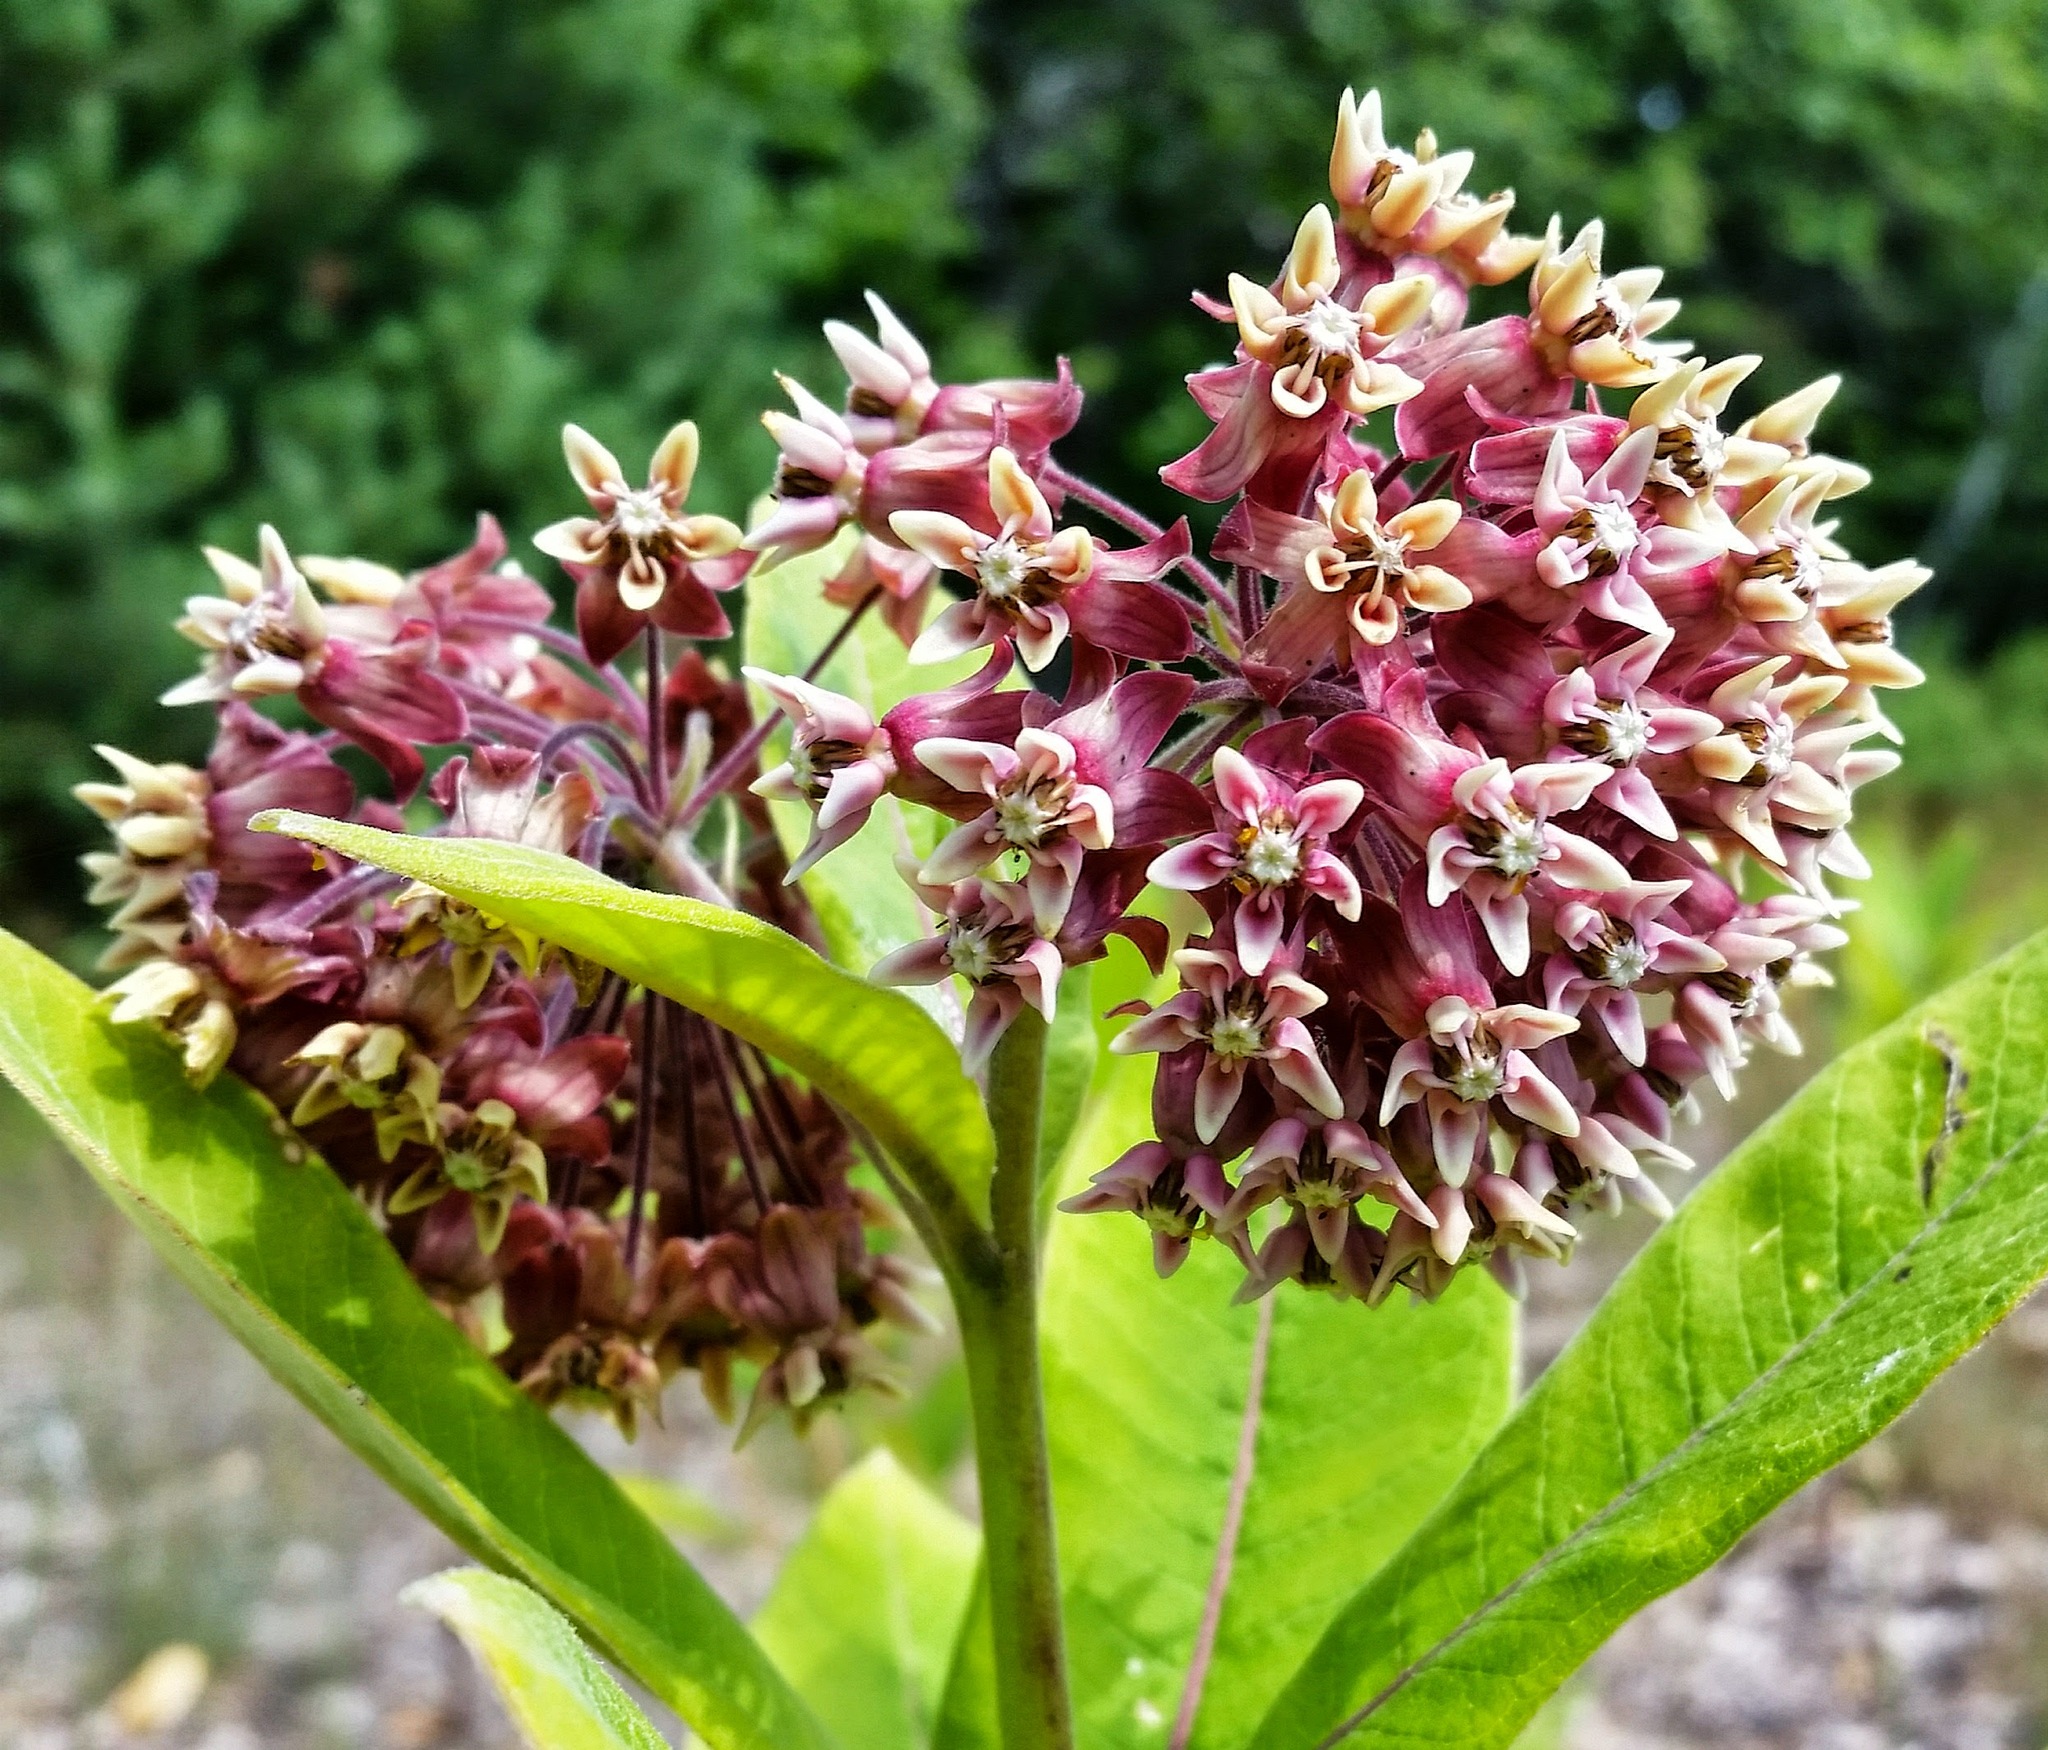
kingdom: Plantae
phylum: Tracheophyta
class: Magnoliopsida
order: Gentianales
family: Apocynaceae
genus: Asclepias
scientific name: Asclepias syriaca
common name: Common milkweed
